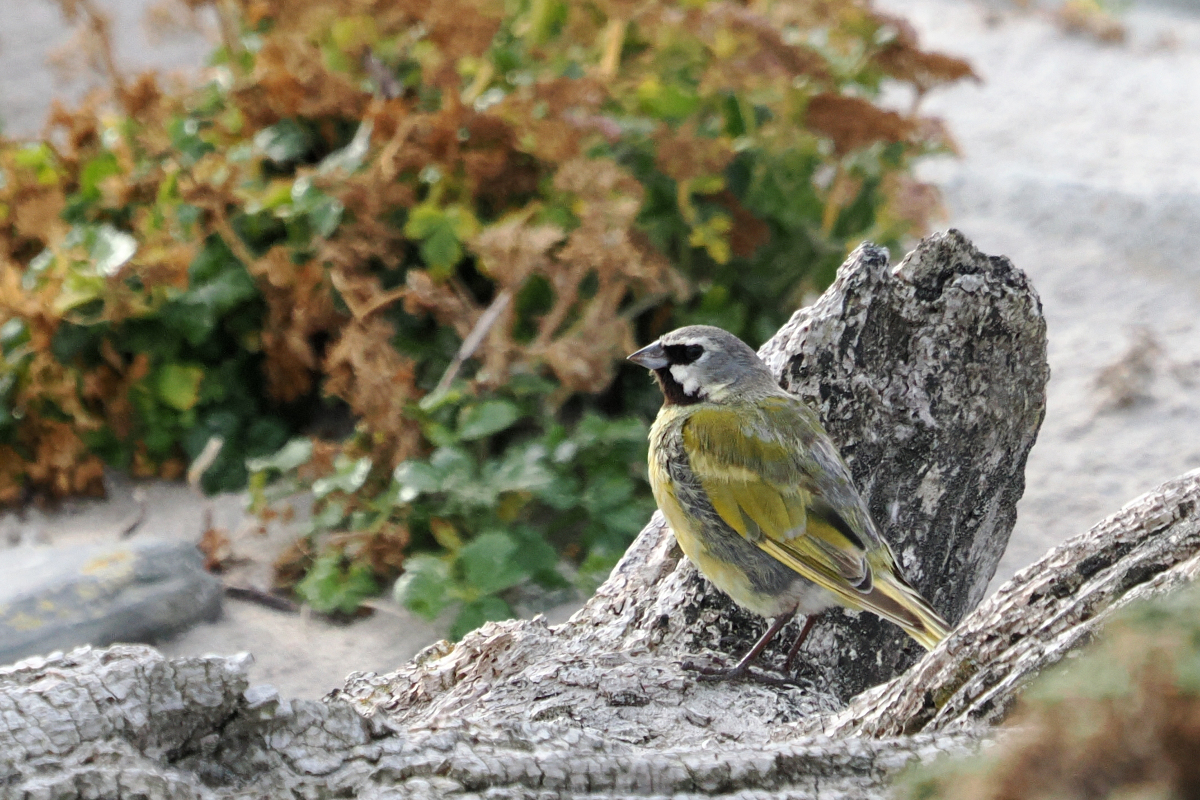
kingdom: Animalia
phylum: Chordata
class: Aves
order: Passeriformes
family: Thraupidae
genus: Melanodera
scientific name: Melanodera melanodera
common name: White-bridled finch
